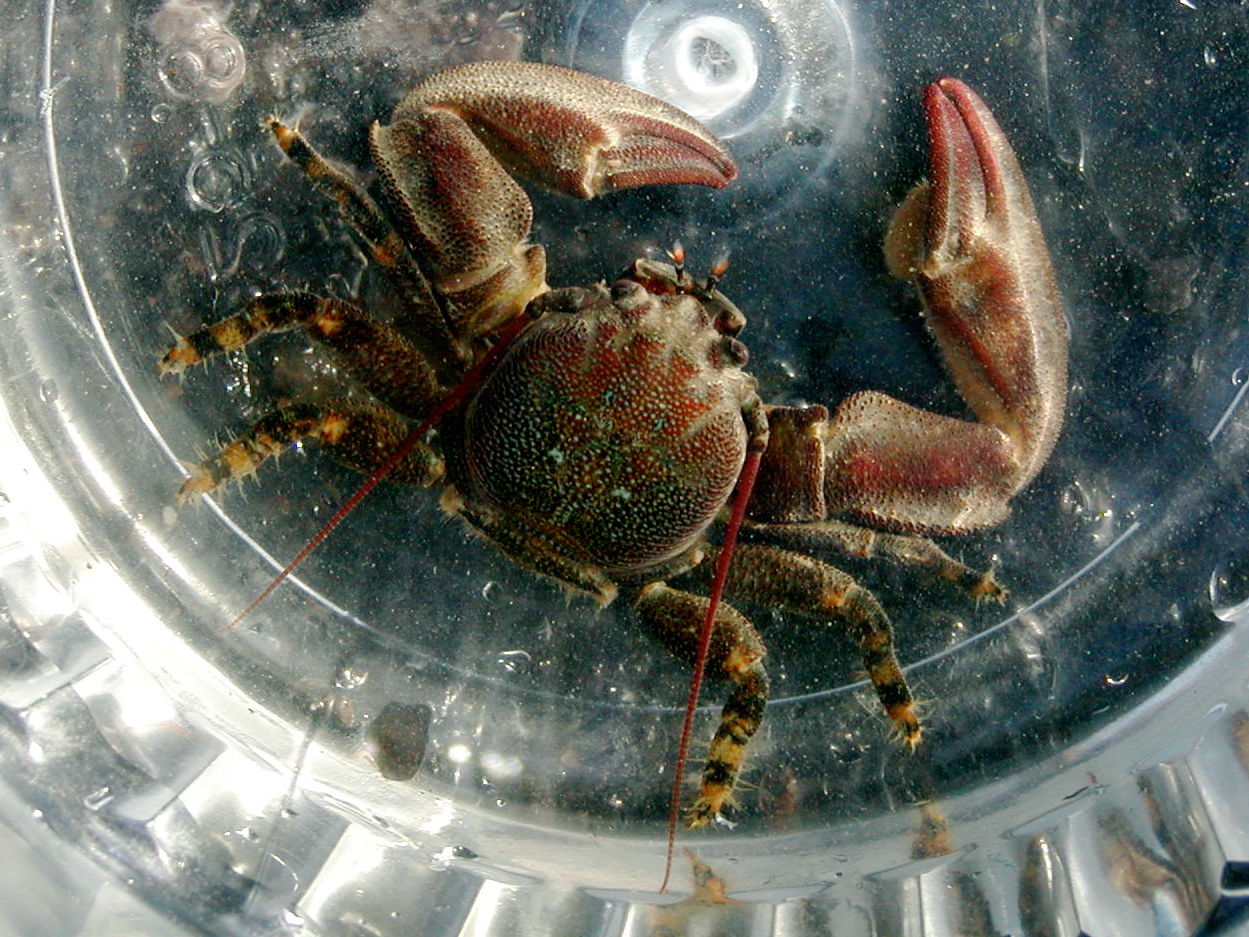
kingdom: Animalia
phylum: Arthropoda
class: Malacostraca
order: Decapoda
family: Porcellanidae
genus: Petrolisthes
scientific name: Petrolisthes cinctipes
